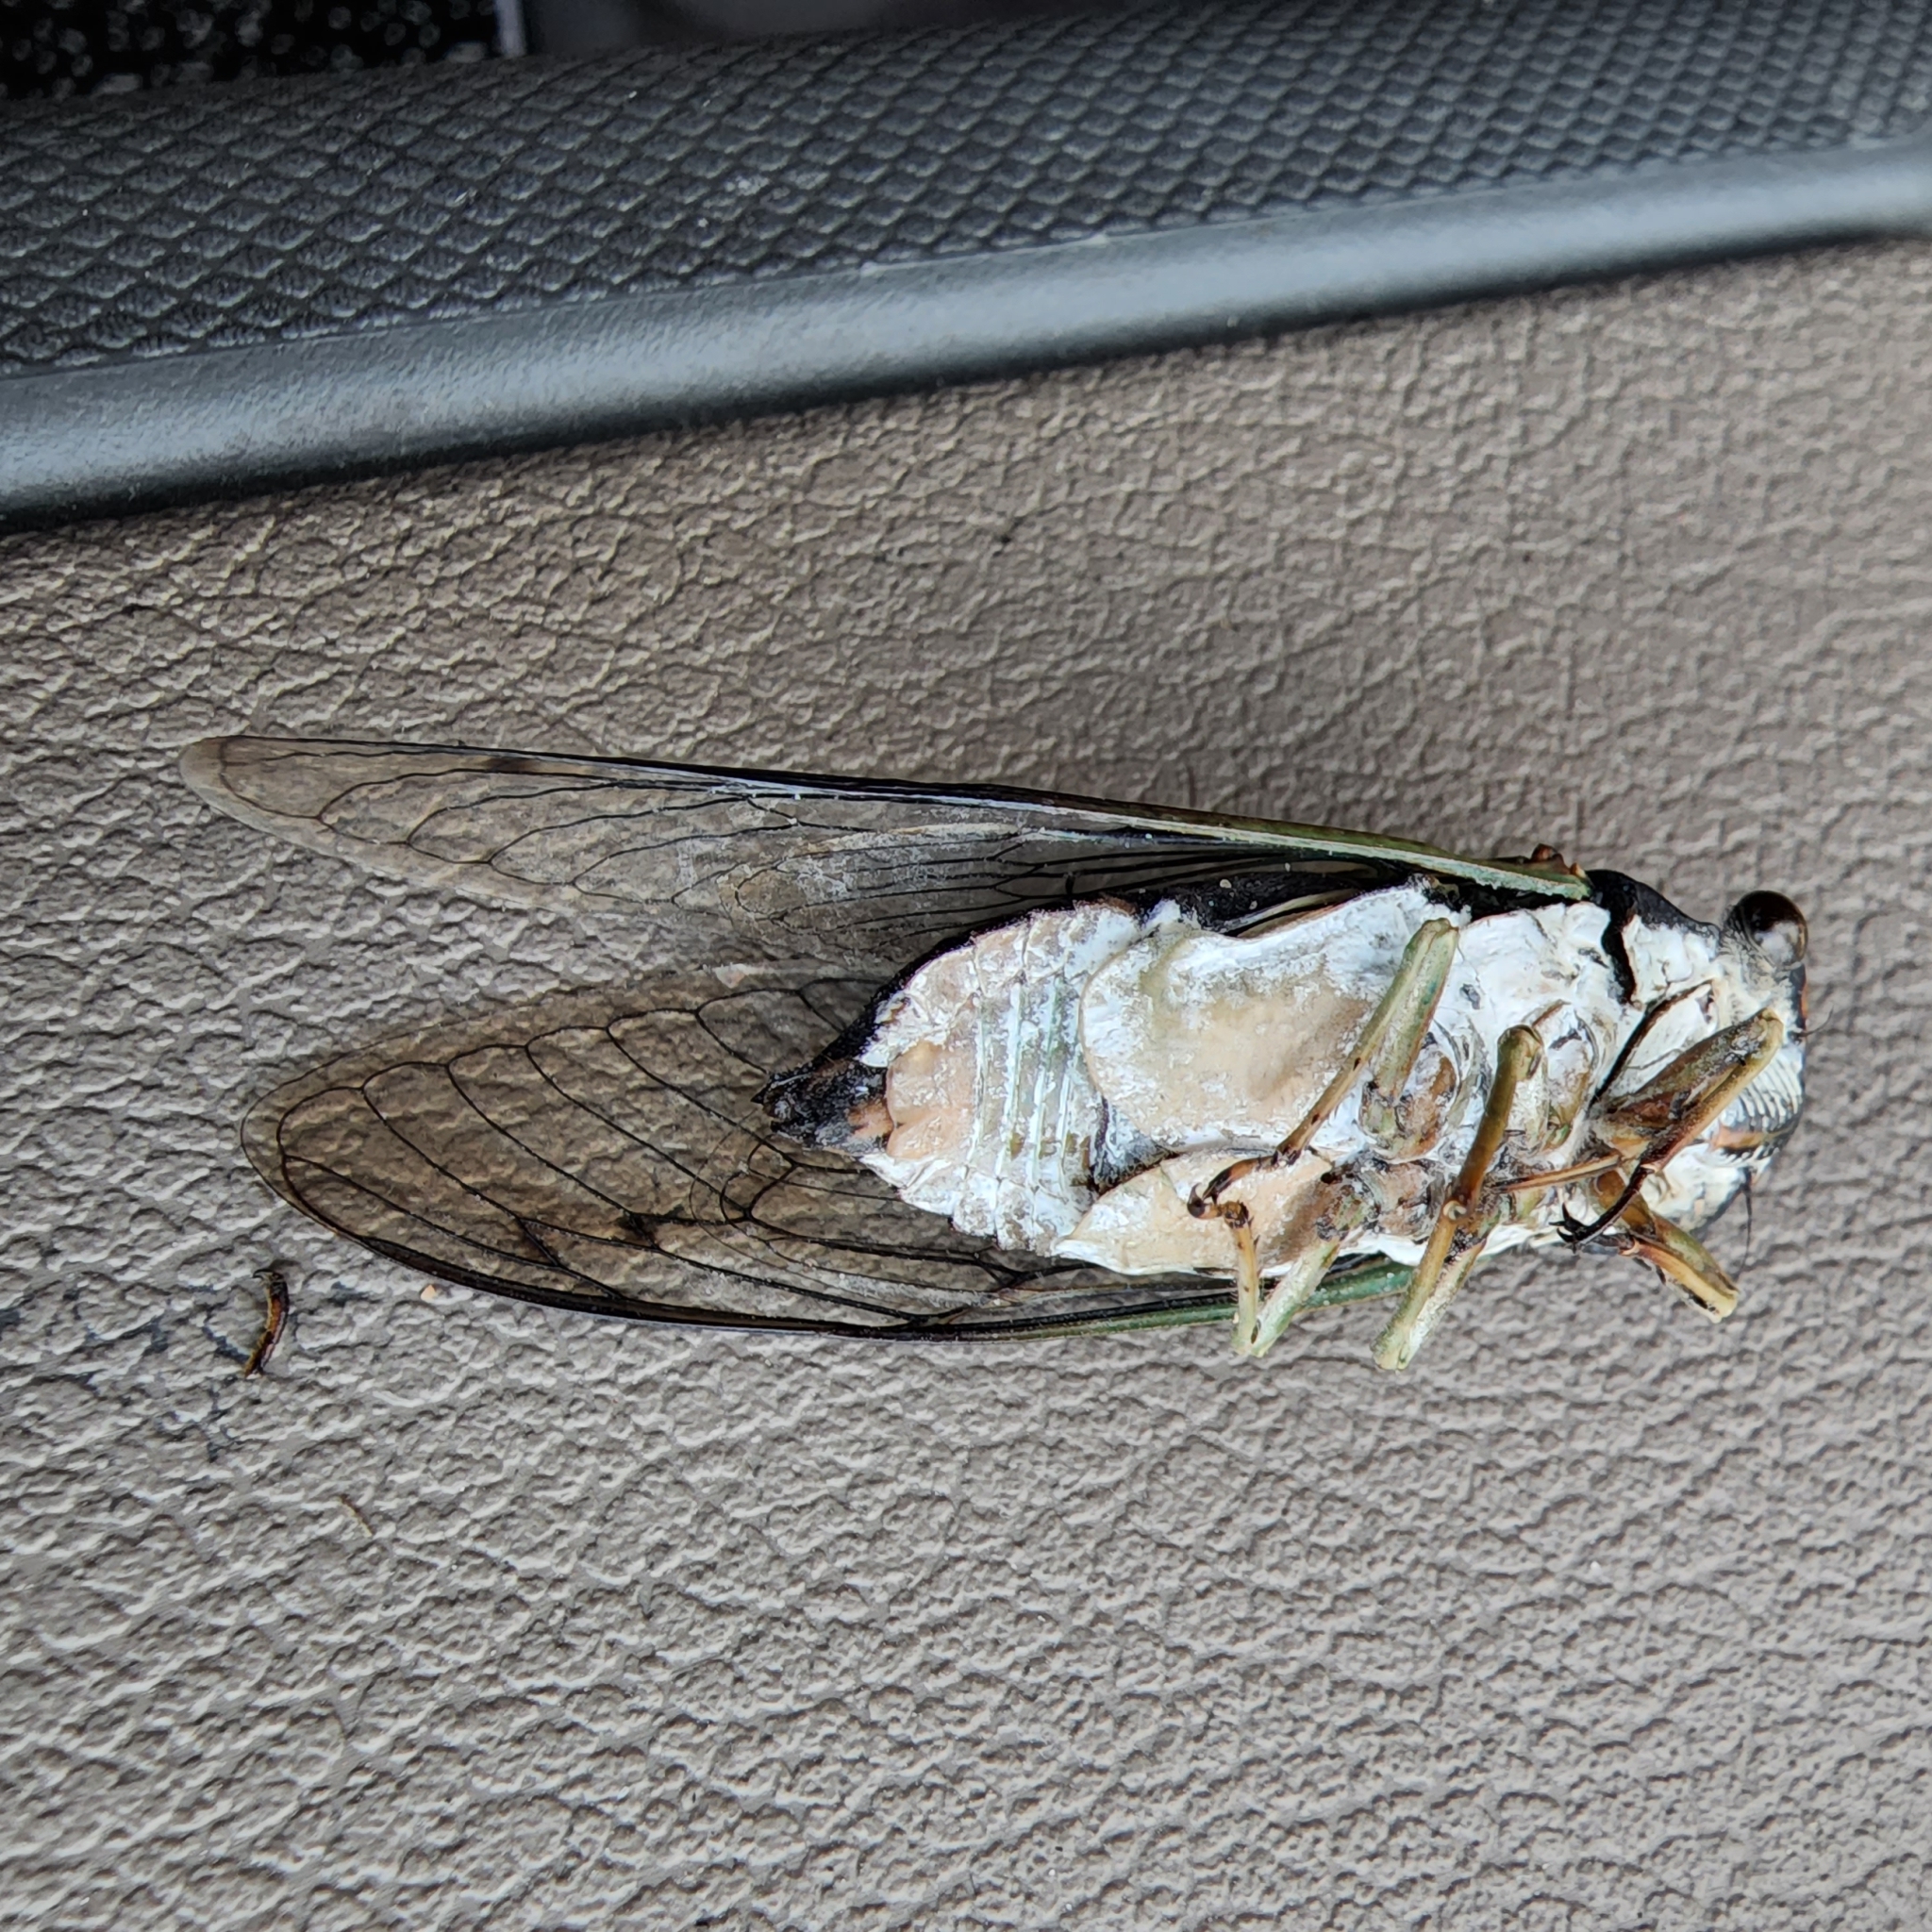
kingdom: Animalia
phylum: Arthropoda
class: Insecta
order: Hemiptera
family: Cicadidae
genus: Neotibicen
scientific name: Neotibicen tibicen
